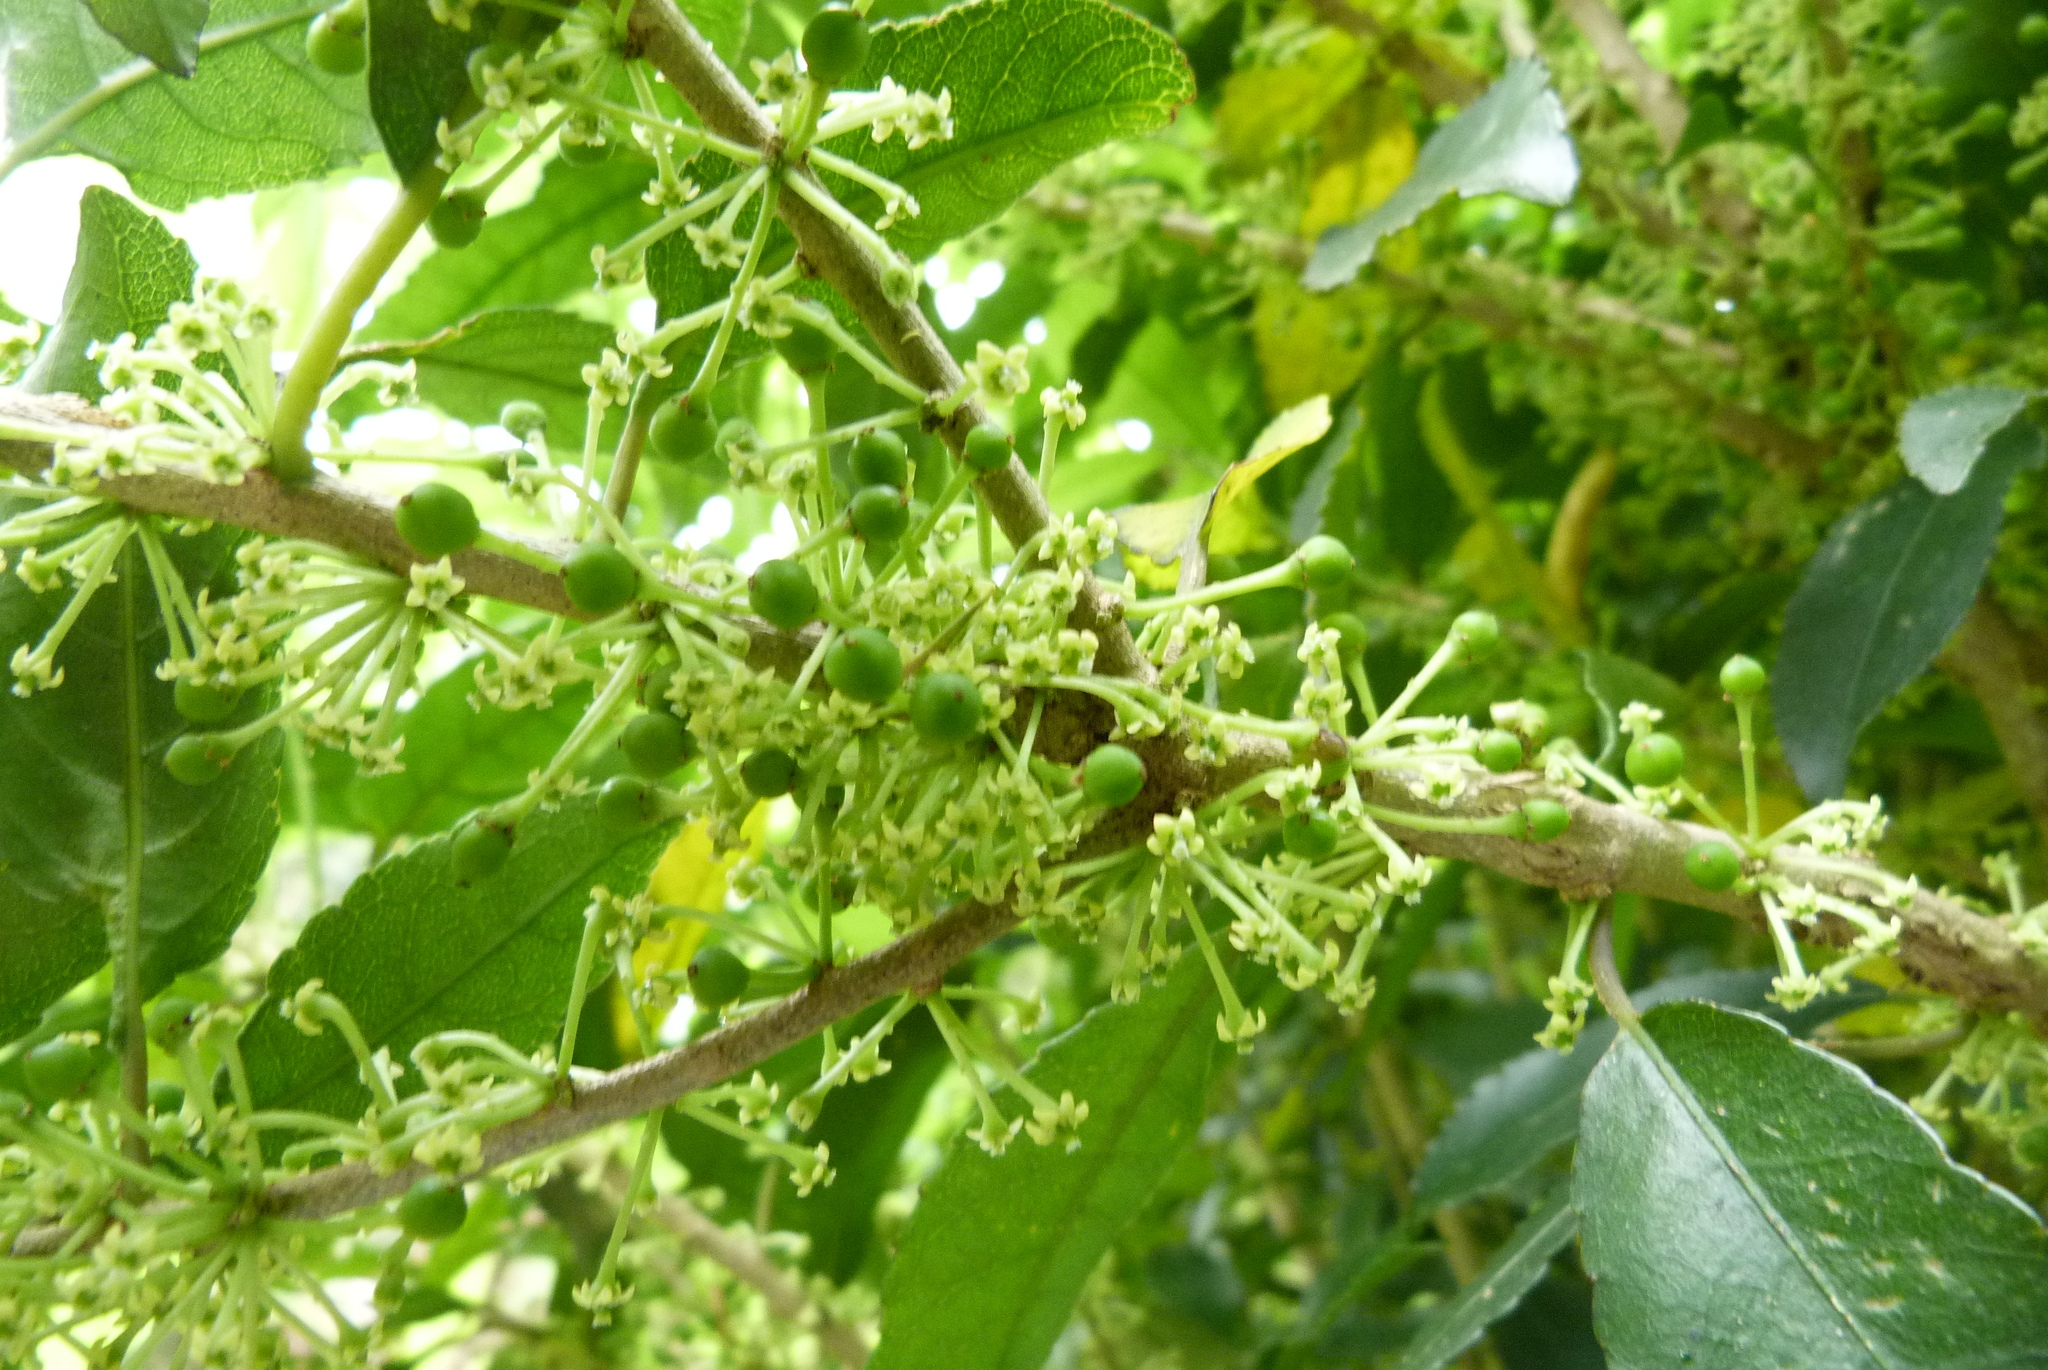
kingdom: Plantae
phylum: Tracheophyta
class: Magnoliopsida
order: Malpighiales
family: Violaceae
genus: Melicytus
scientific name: Melicytus ramiflorus
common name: Mahoe
